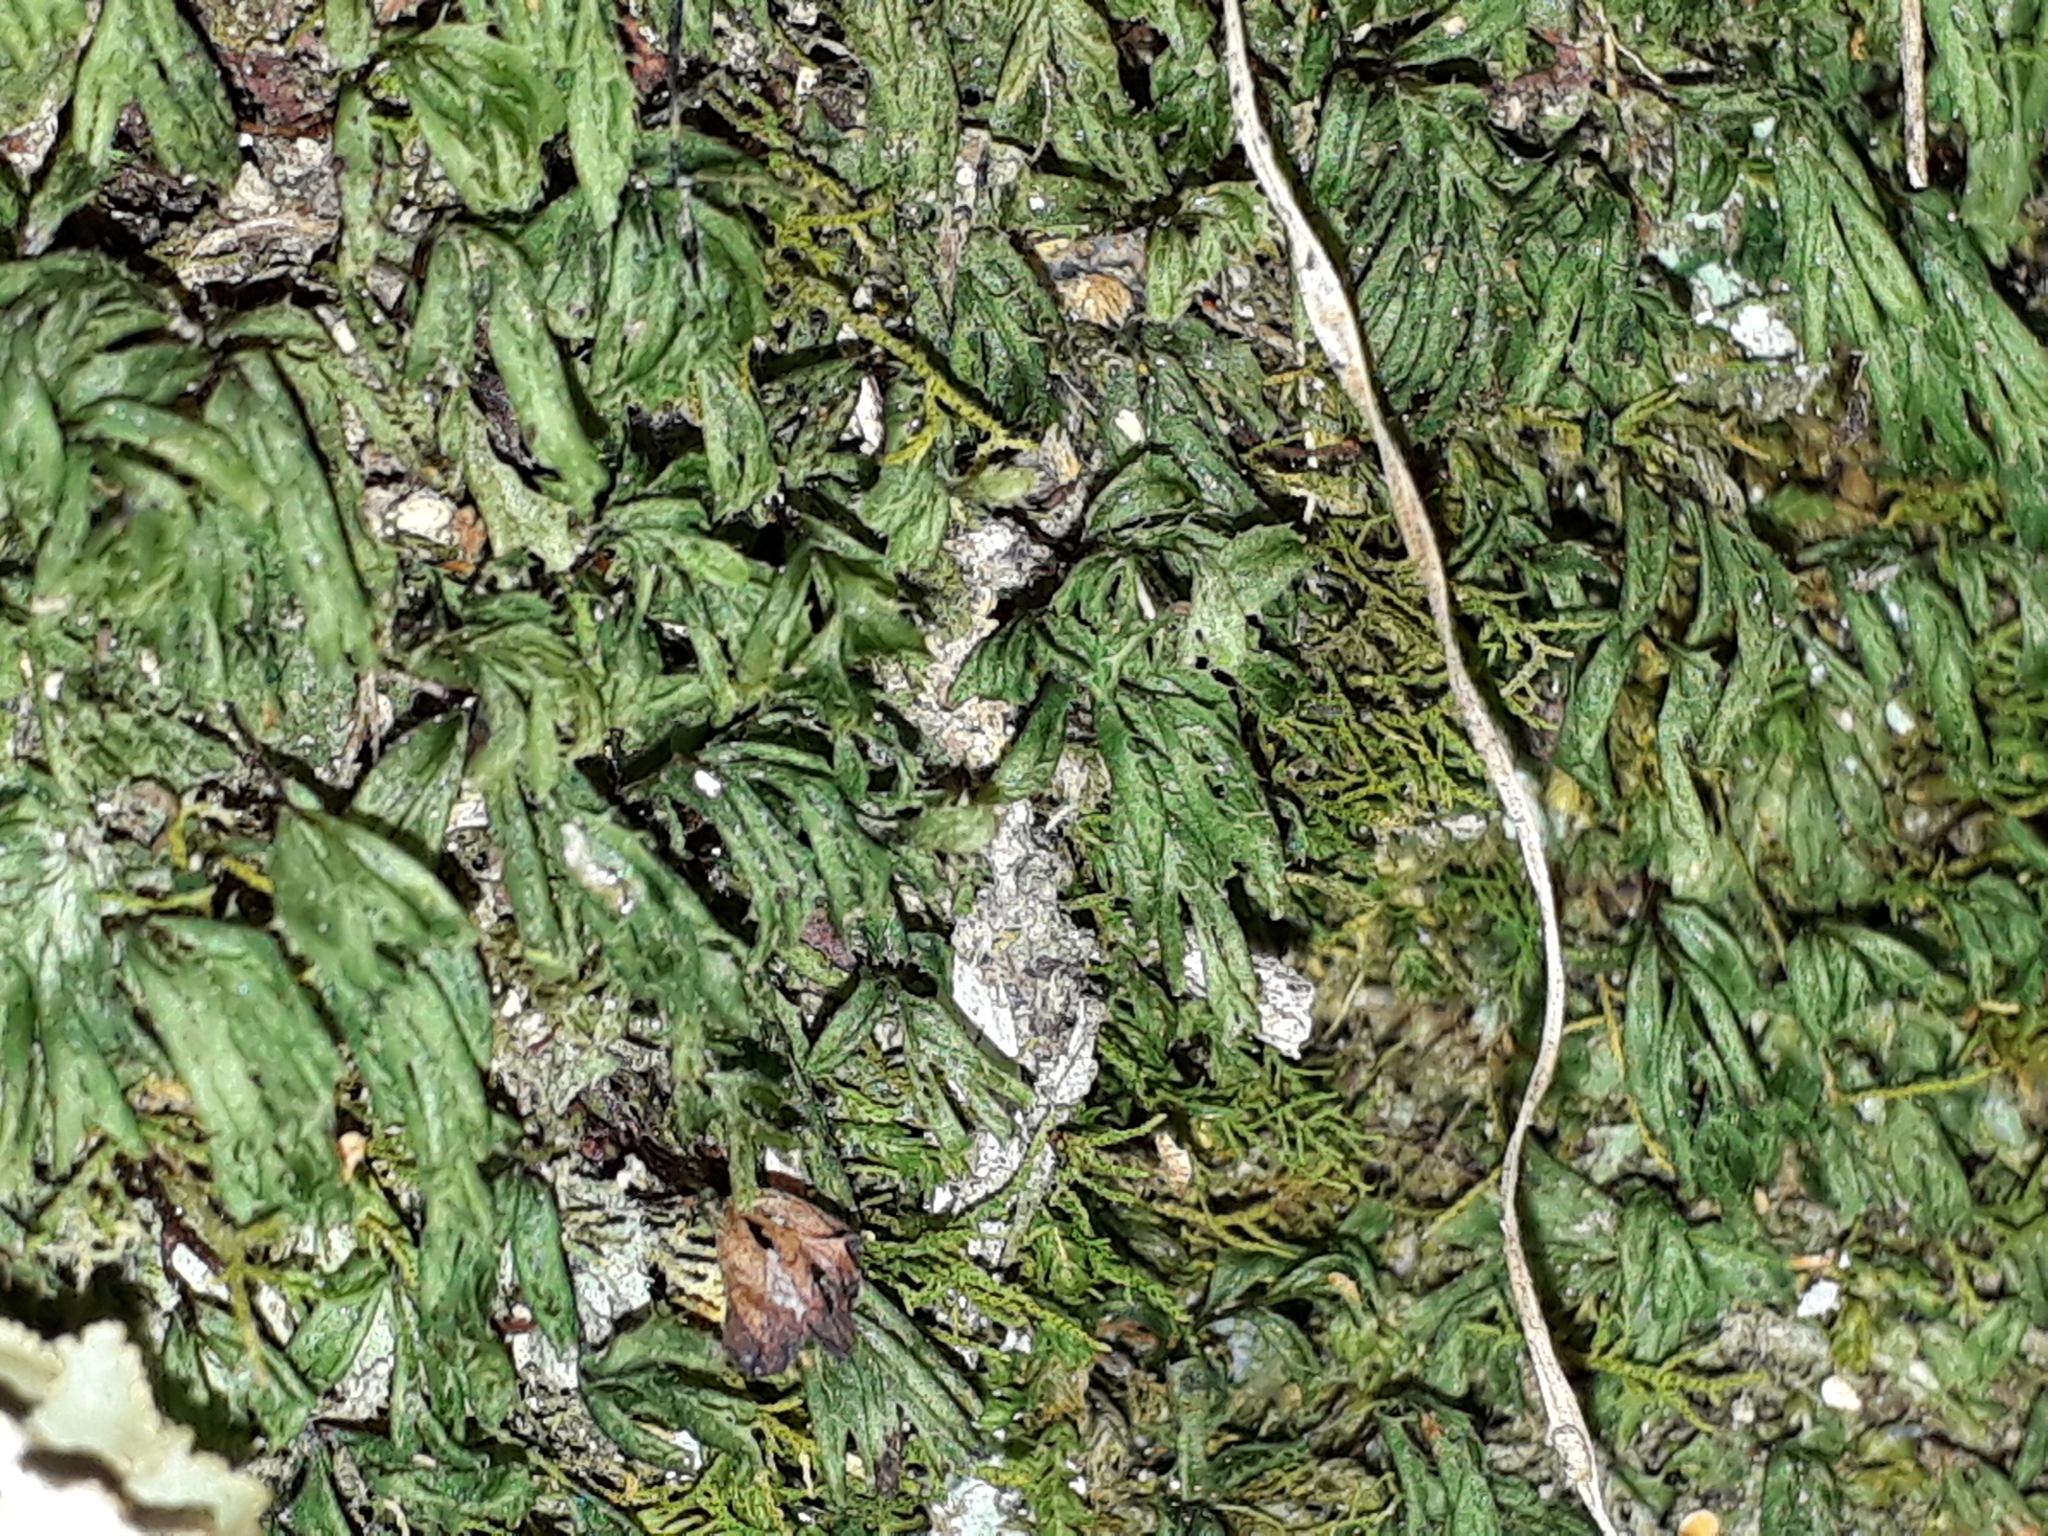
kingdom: Plantae
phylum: Tracheophyta
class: Polypodiopsida
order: Hymenophyllales
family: Hymenophyllaceae
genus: Hymenophyllum
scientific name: Hymenophyllum minimum
